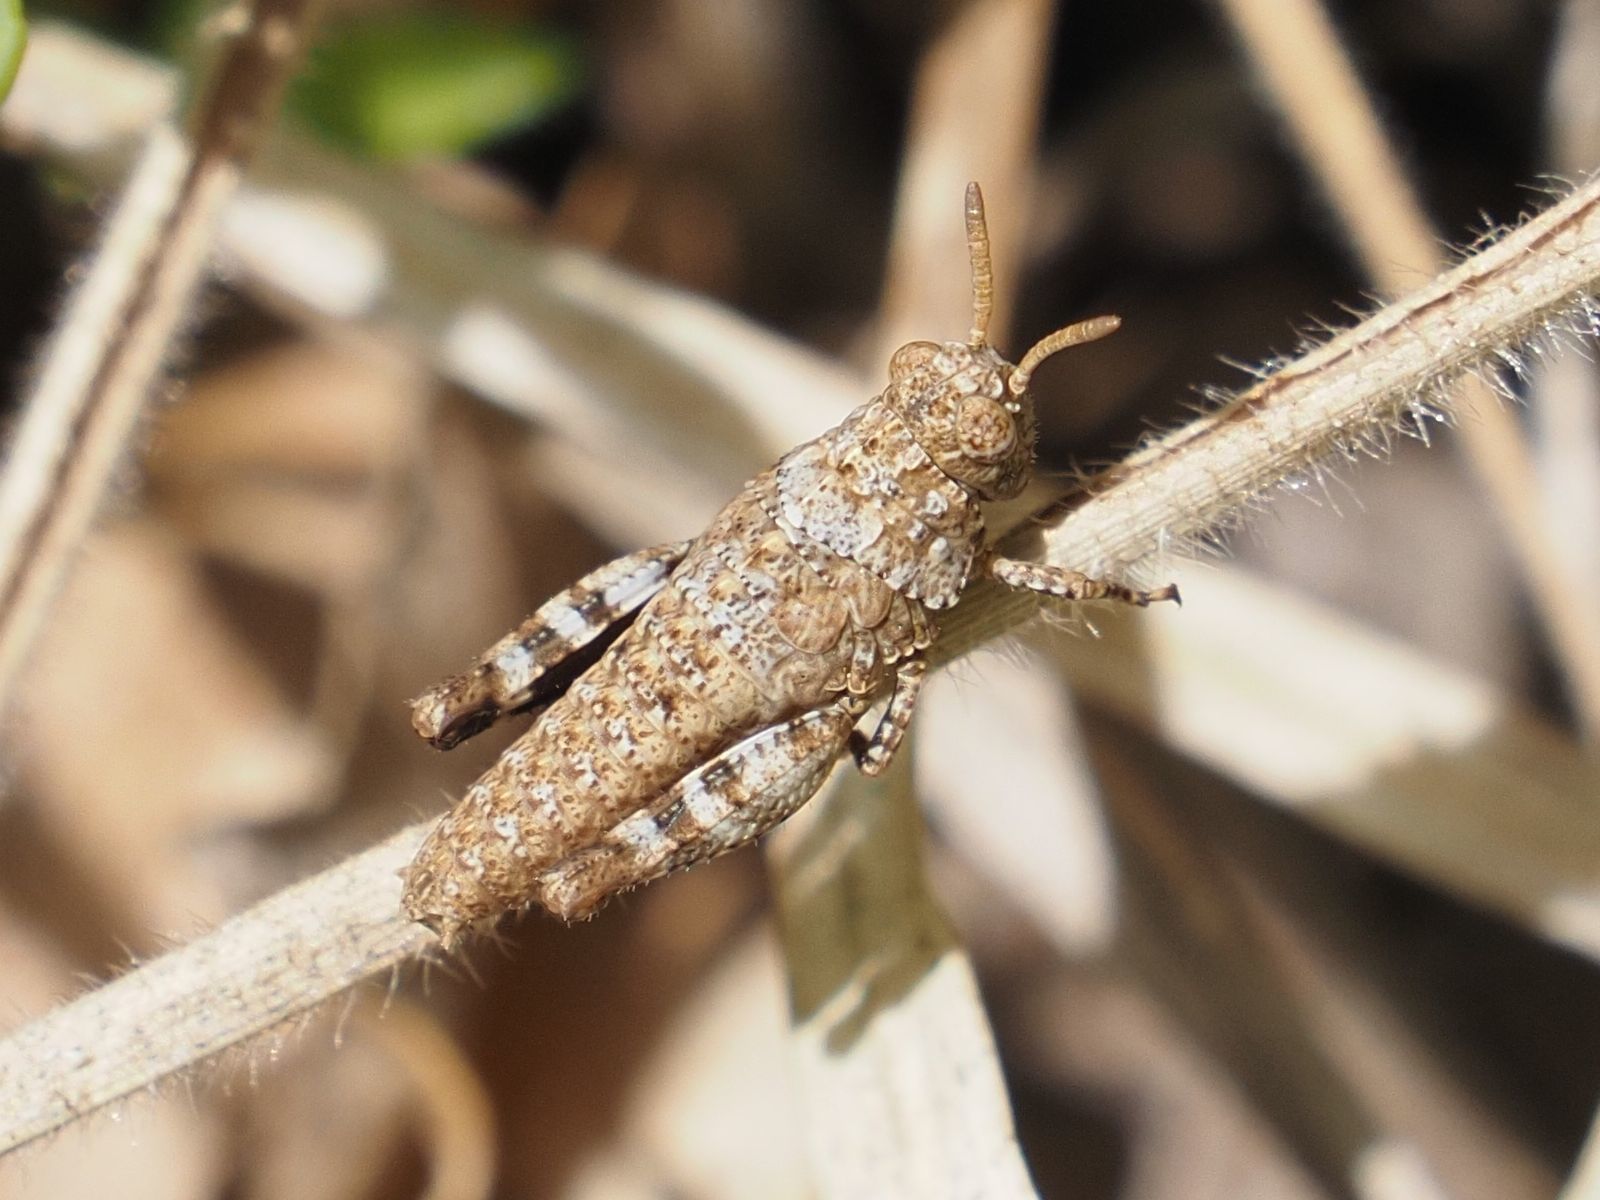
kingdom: Animalia
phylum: Arthropoda
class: Insecta
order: Orthoptera
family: Acrididae
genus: Oedipoda
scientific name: Oedipoda caerulescens
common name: Blue-winged grasshopper
